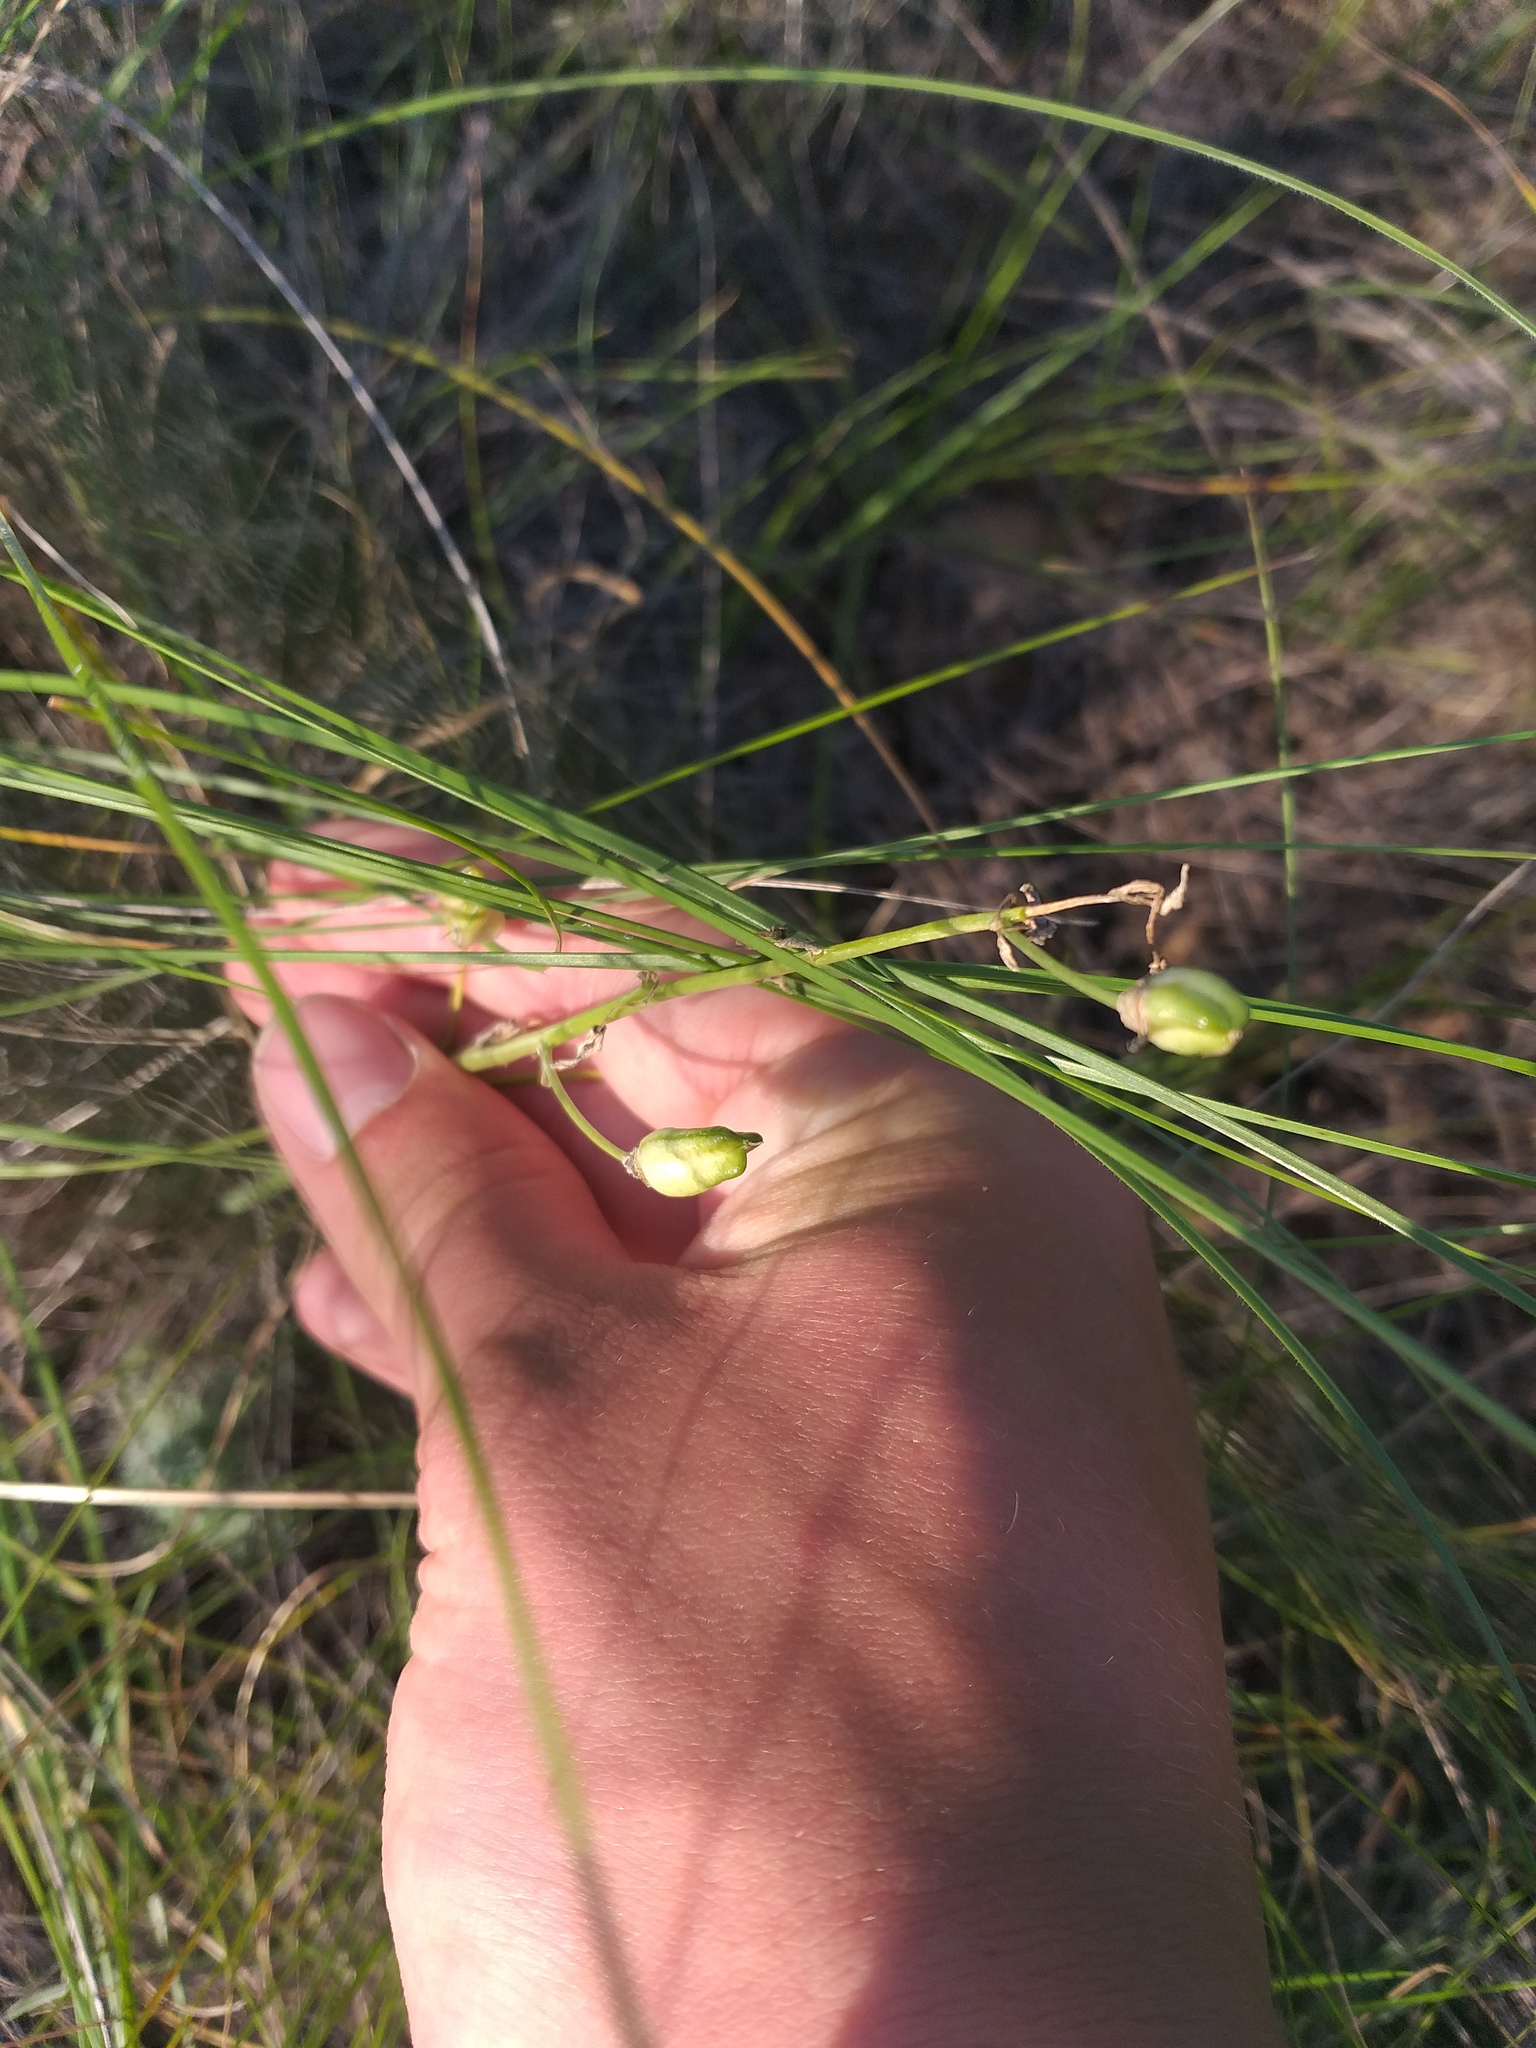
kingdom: Plantae
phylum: Tracheophyta
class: Liliopsida
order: Asparagales
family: Asparagaceae
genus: Ornithogalum
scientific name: Ornithogalum fischerianum
